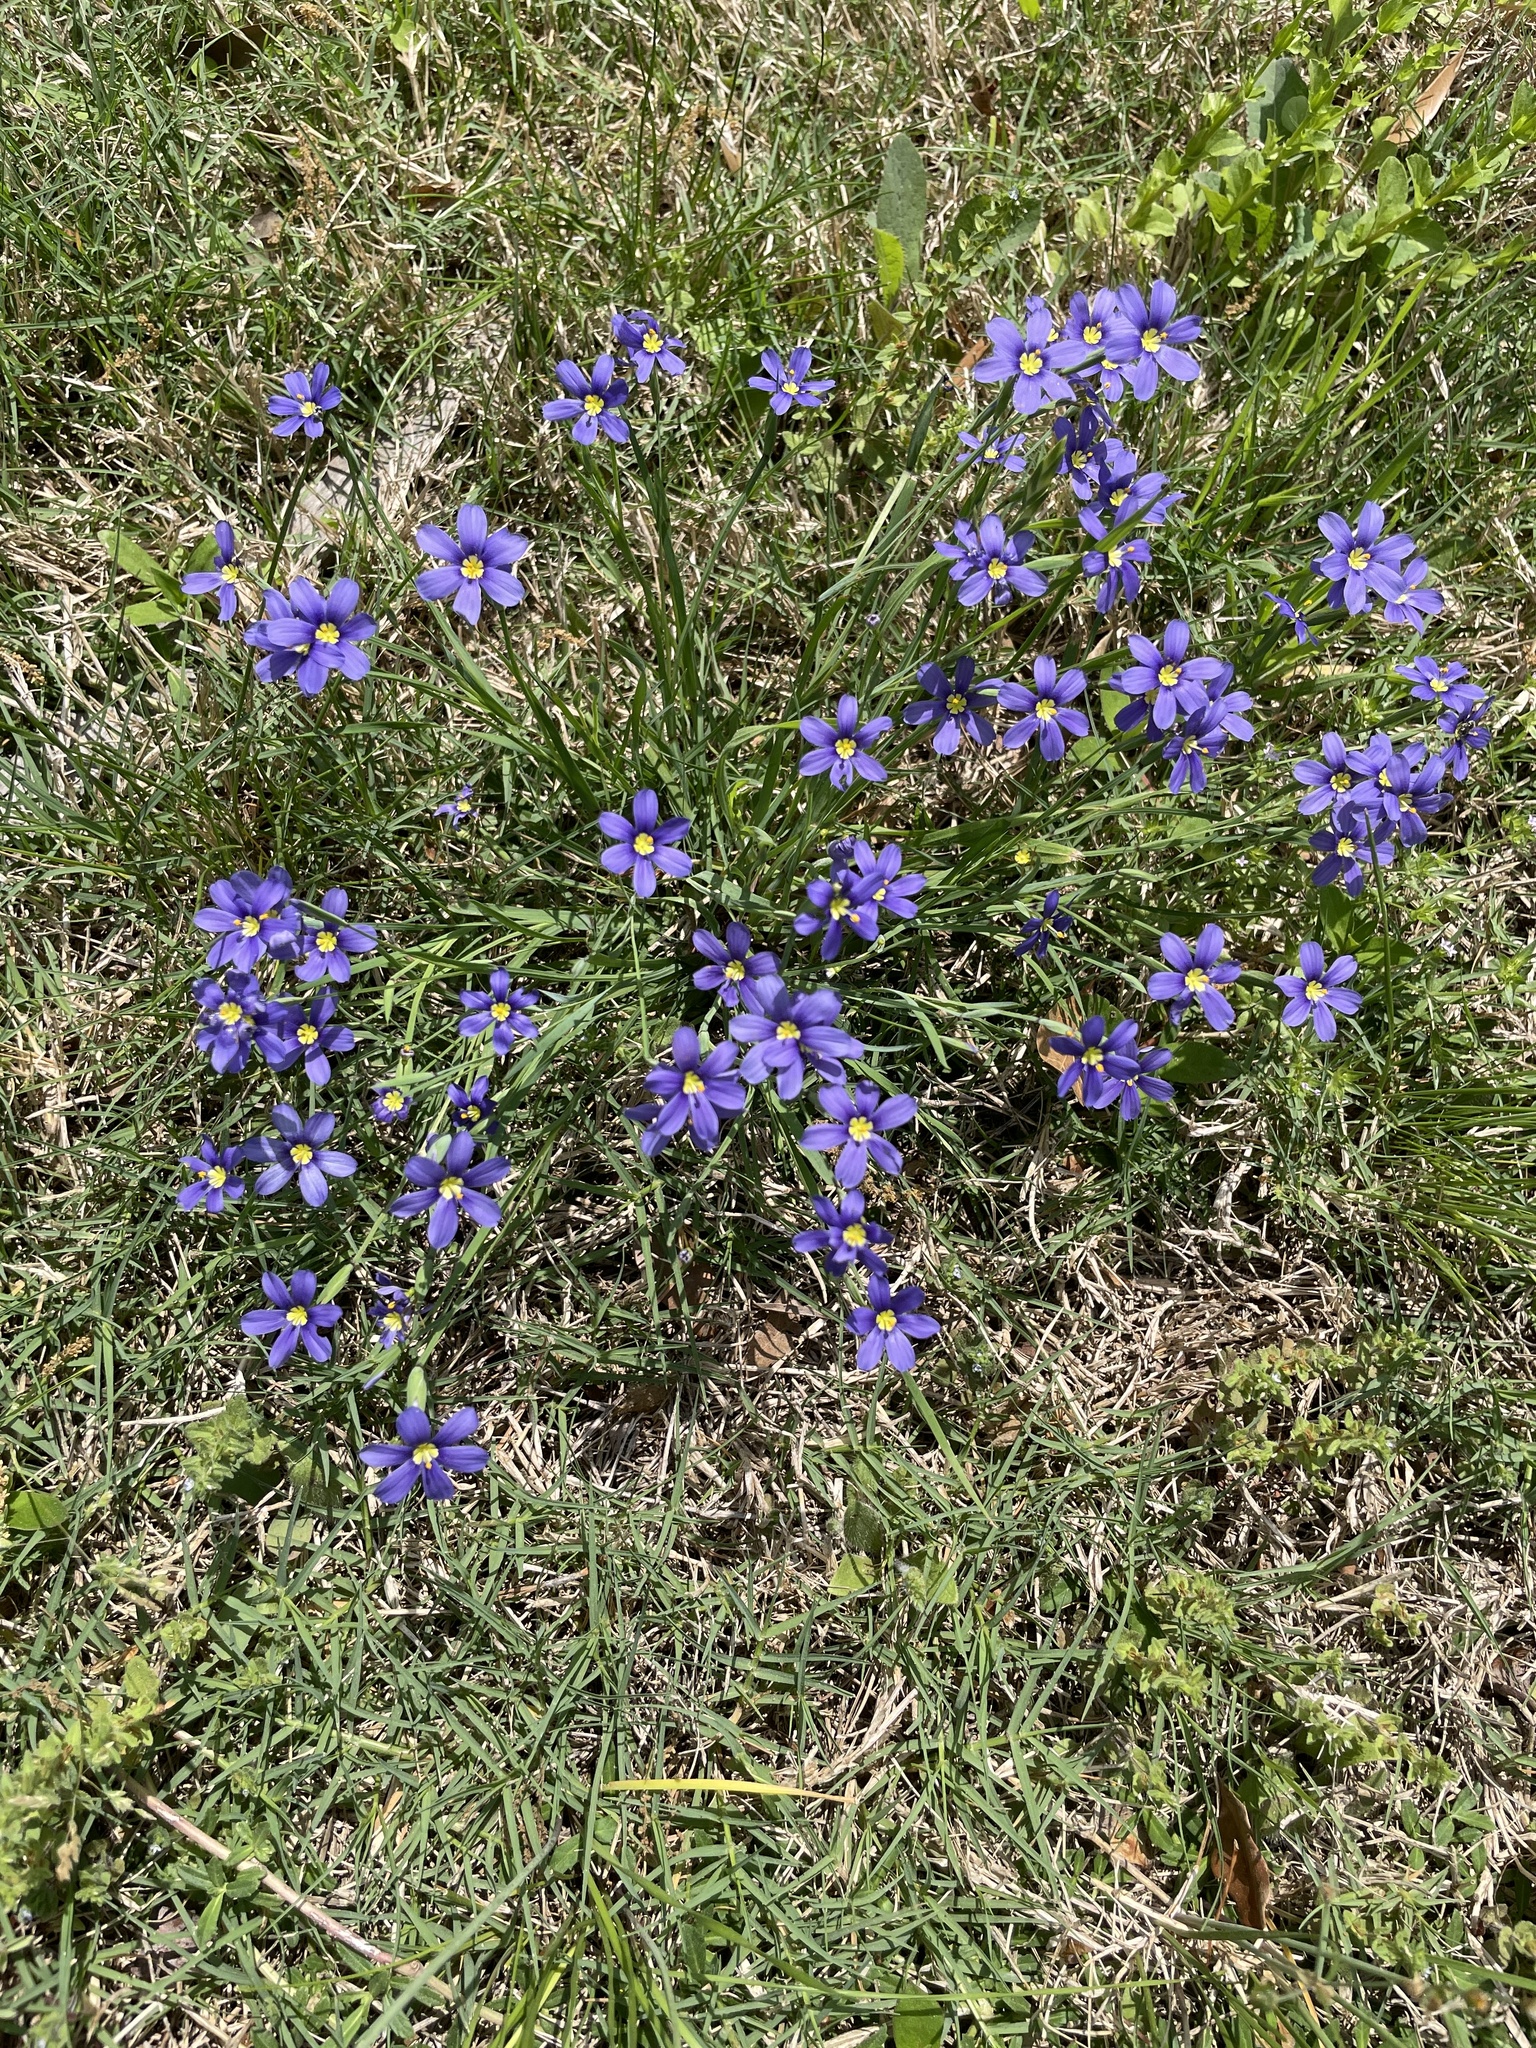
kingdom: Plantae
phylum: Tracheophyta
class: Liliopsida
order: Asparagales
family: Iridaceae
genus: Sisyrinchium
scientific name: Sisyrinchium pruinosum
